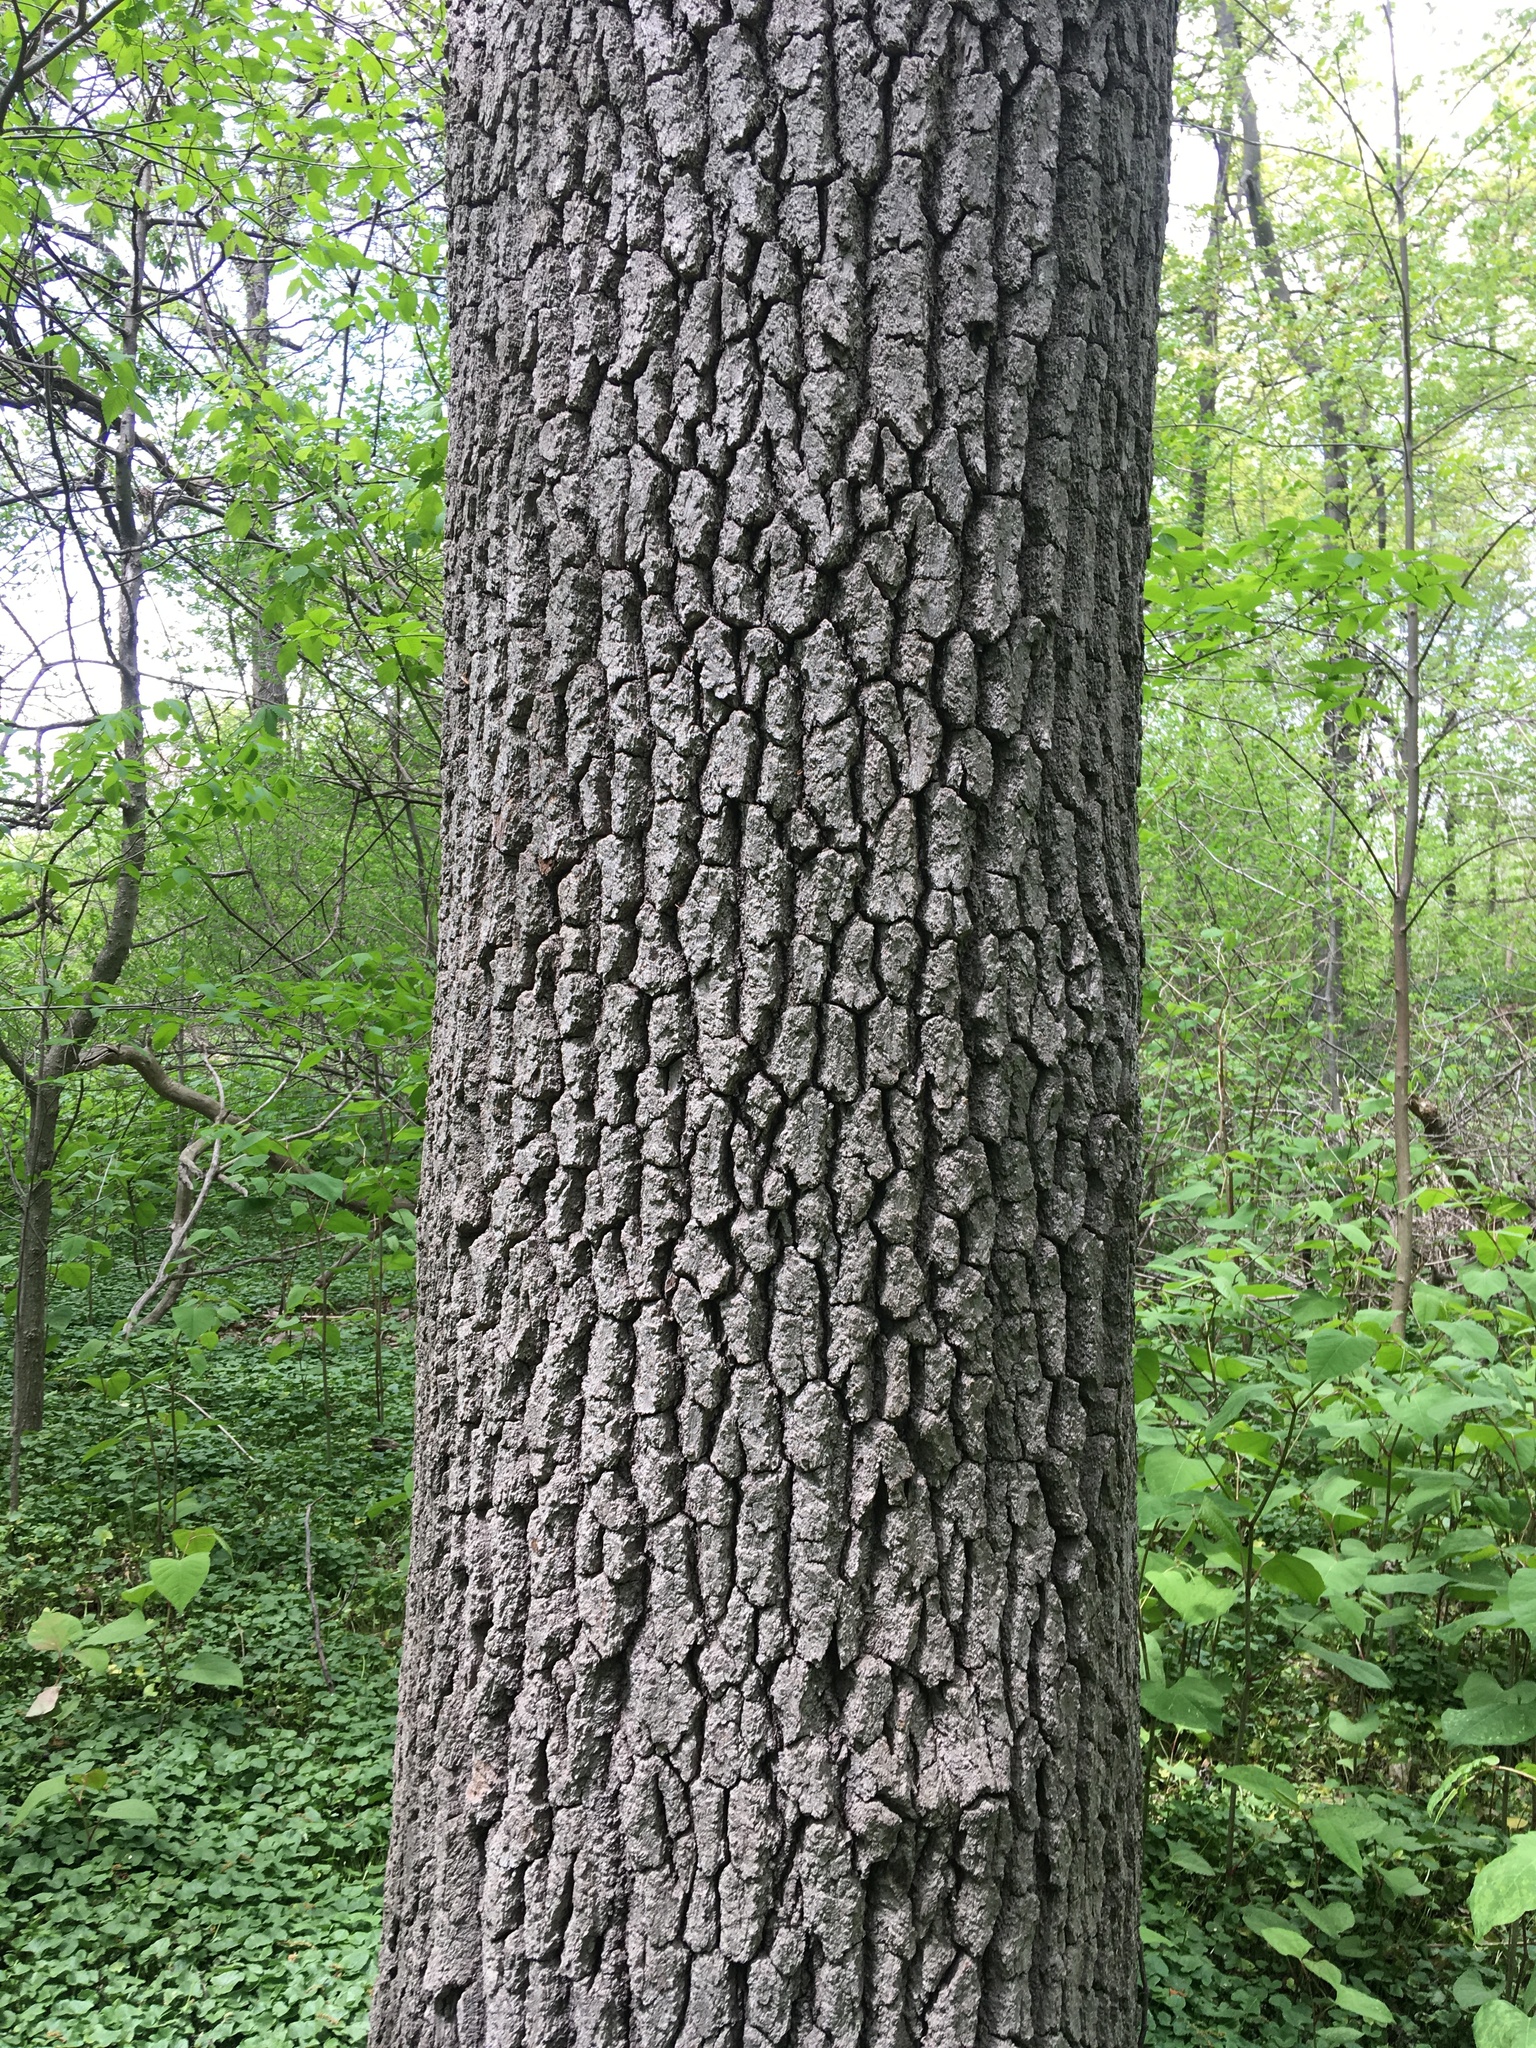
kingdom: Plantae
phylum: Tracheophyta
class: Magnoliopsida
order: Cornales
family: Nyssaceae
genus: Nyssa
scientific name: Nyssa sylvatica
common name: Black tupelo
